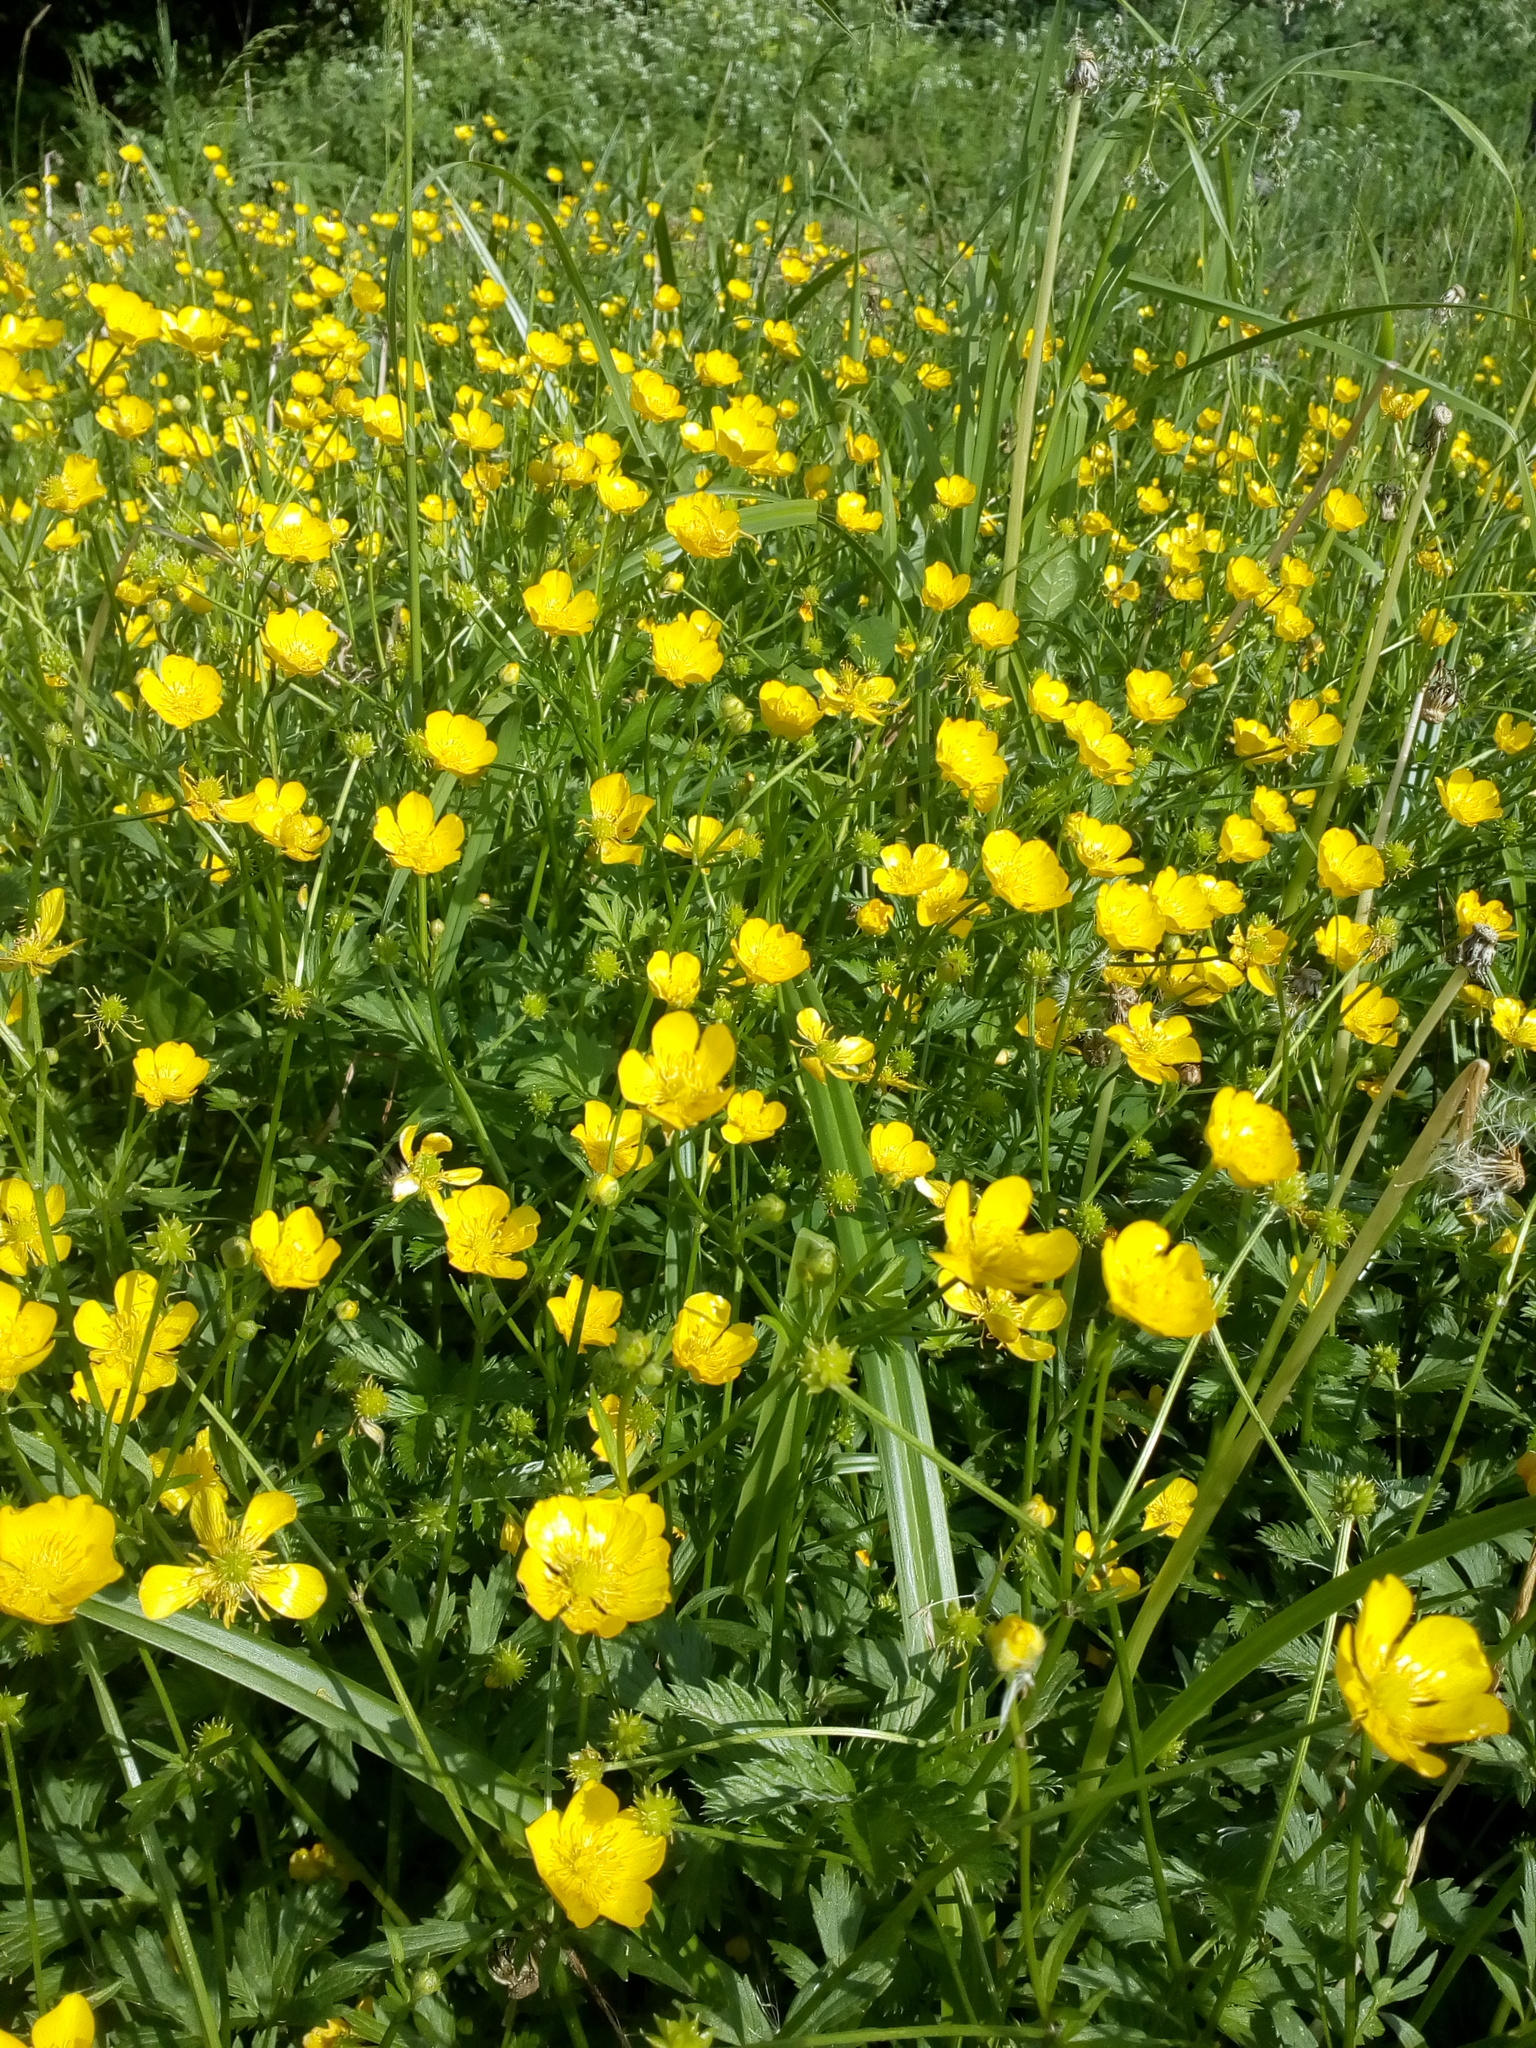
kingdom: Plantae
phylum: Tracheophyta
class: Magnoliopsida
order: Ranunculales
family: Ranunculaceae
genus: Ranunculus
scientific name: Ranunculus repens
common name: Creeping buttercup
